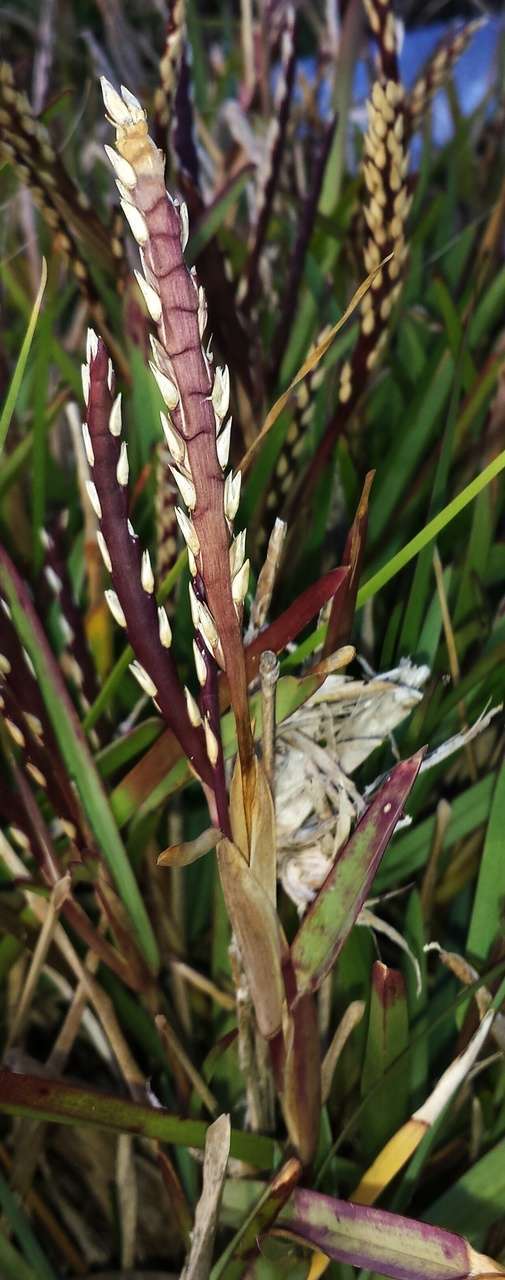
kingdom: Plantae
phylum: Tracheophyta
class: Liliopsida
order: Poales
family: Poaceae
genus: Stenotaphrum
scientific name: Stenotaphrum secundatum
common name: St. augustine grass
